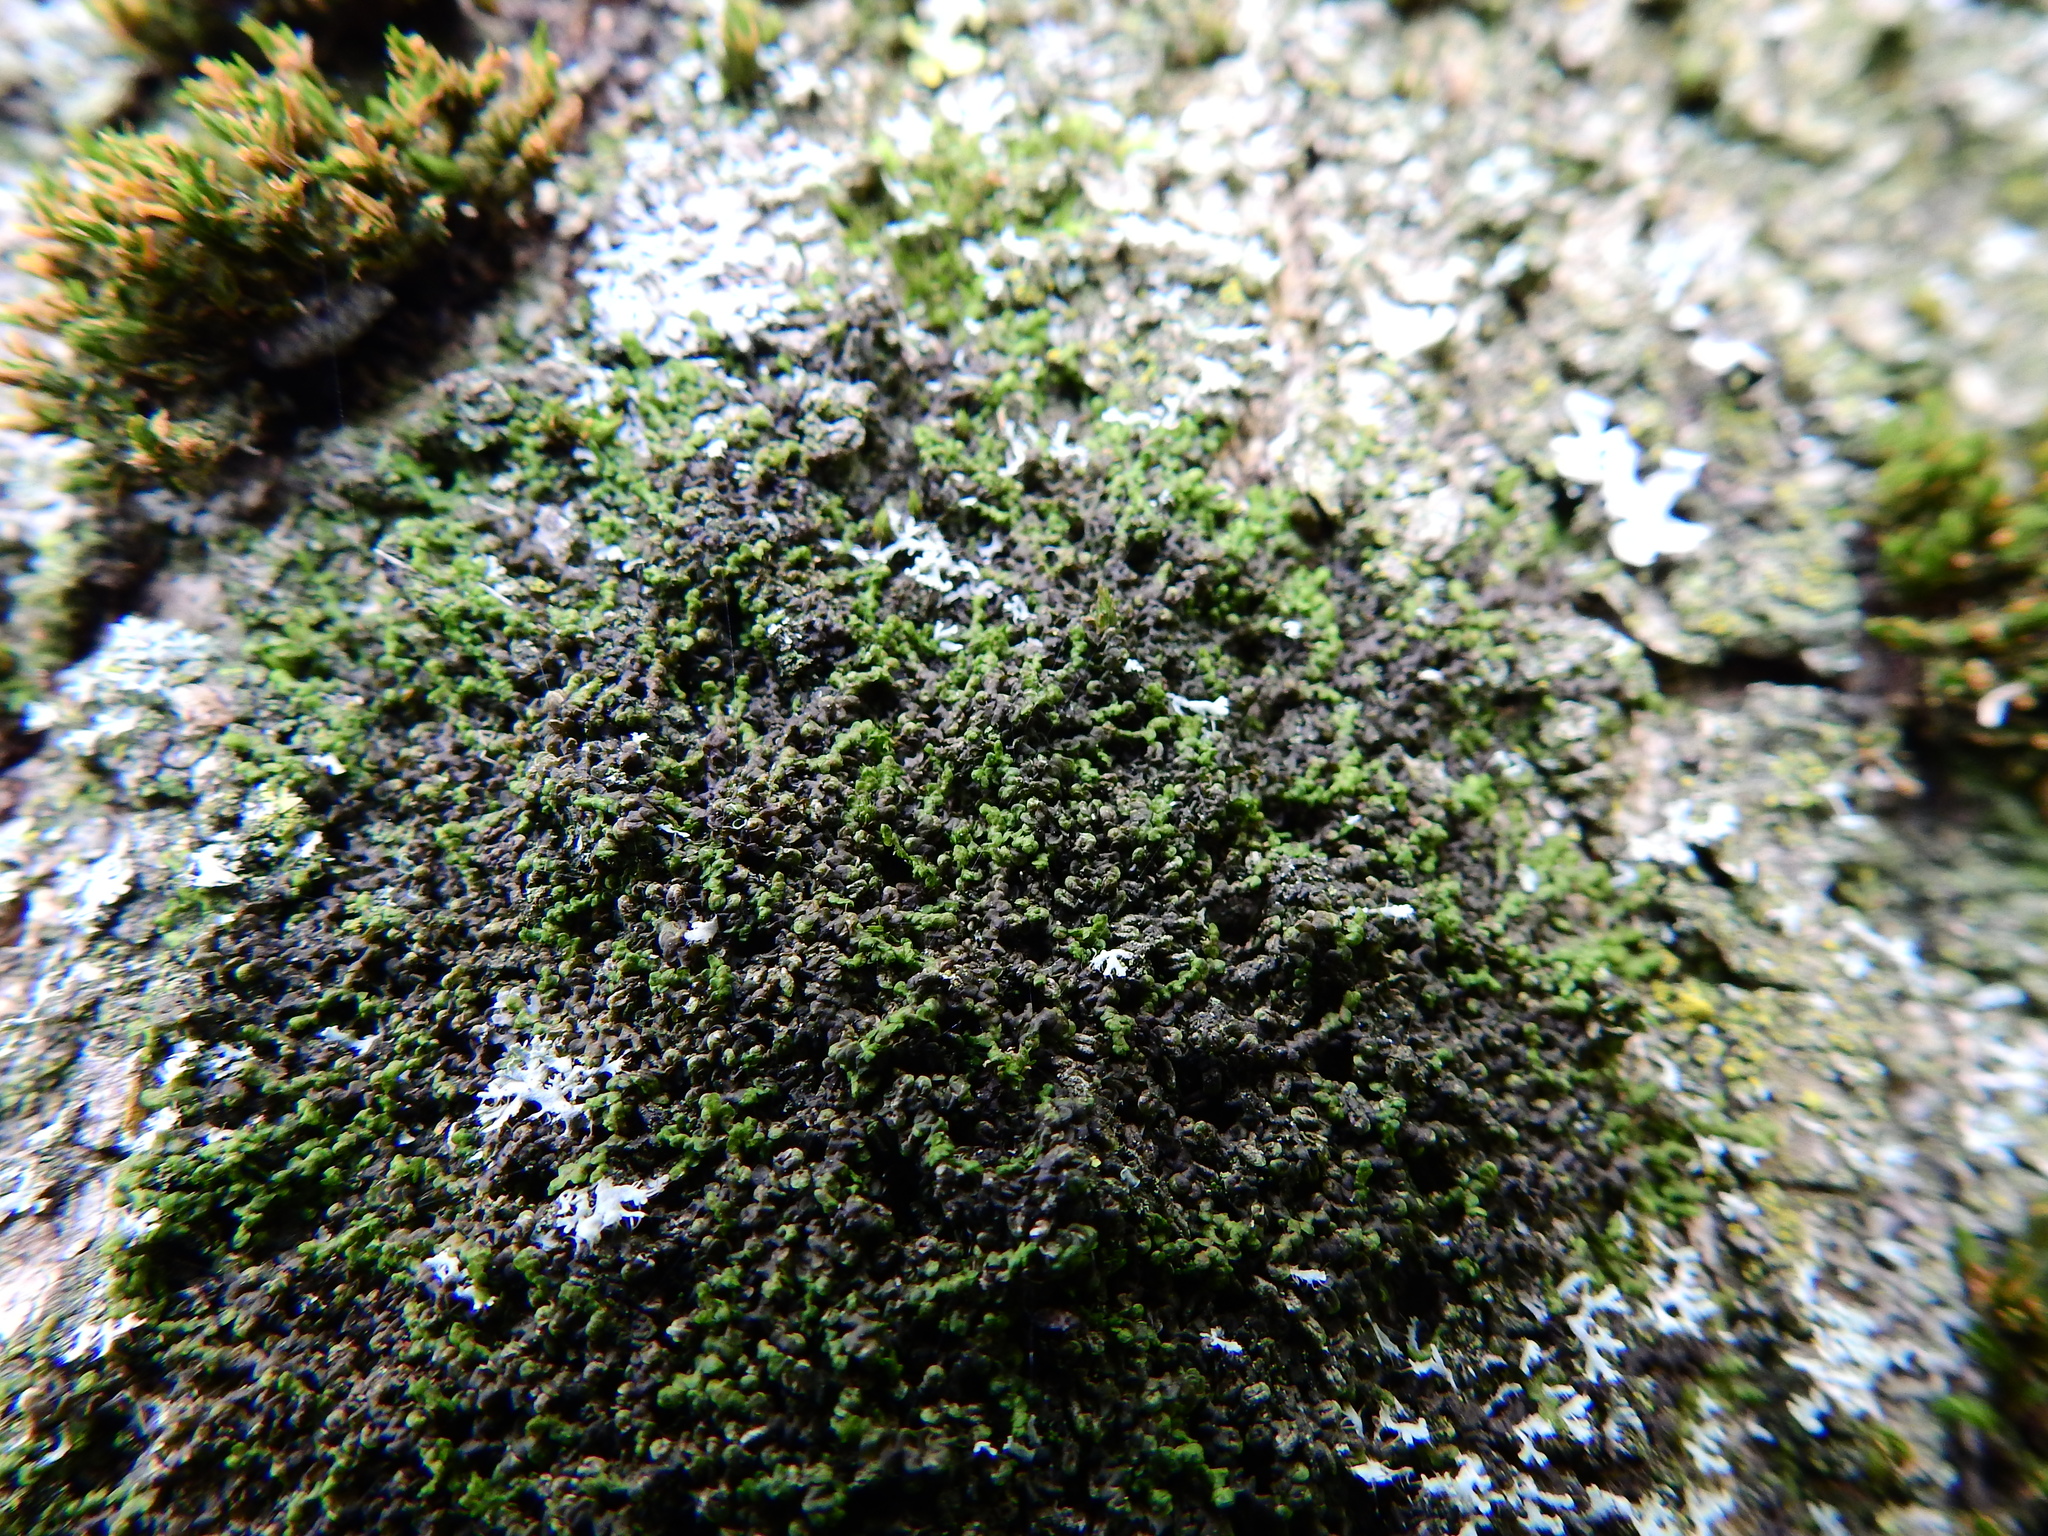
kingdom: Plantae
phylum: Marchantiophyta
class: Jungermanniopsida
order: Porellales
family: Frullaniaceae
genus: Frullania
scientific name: Frullania dilatata
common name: Dilated scalewort
